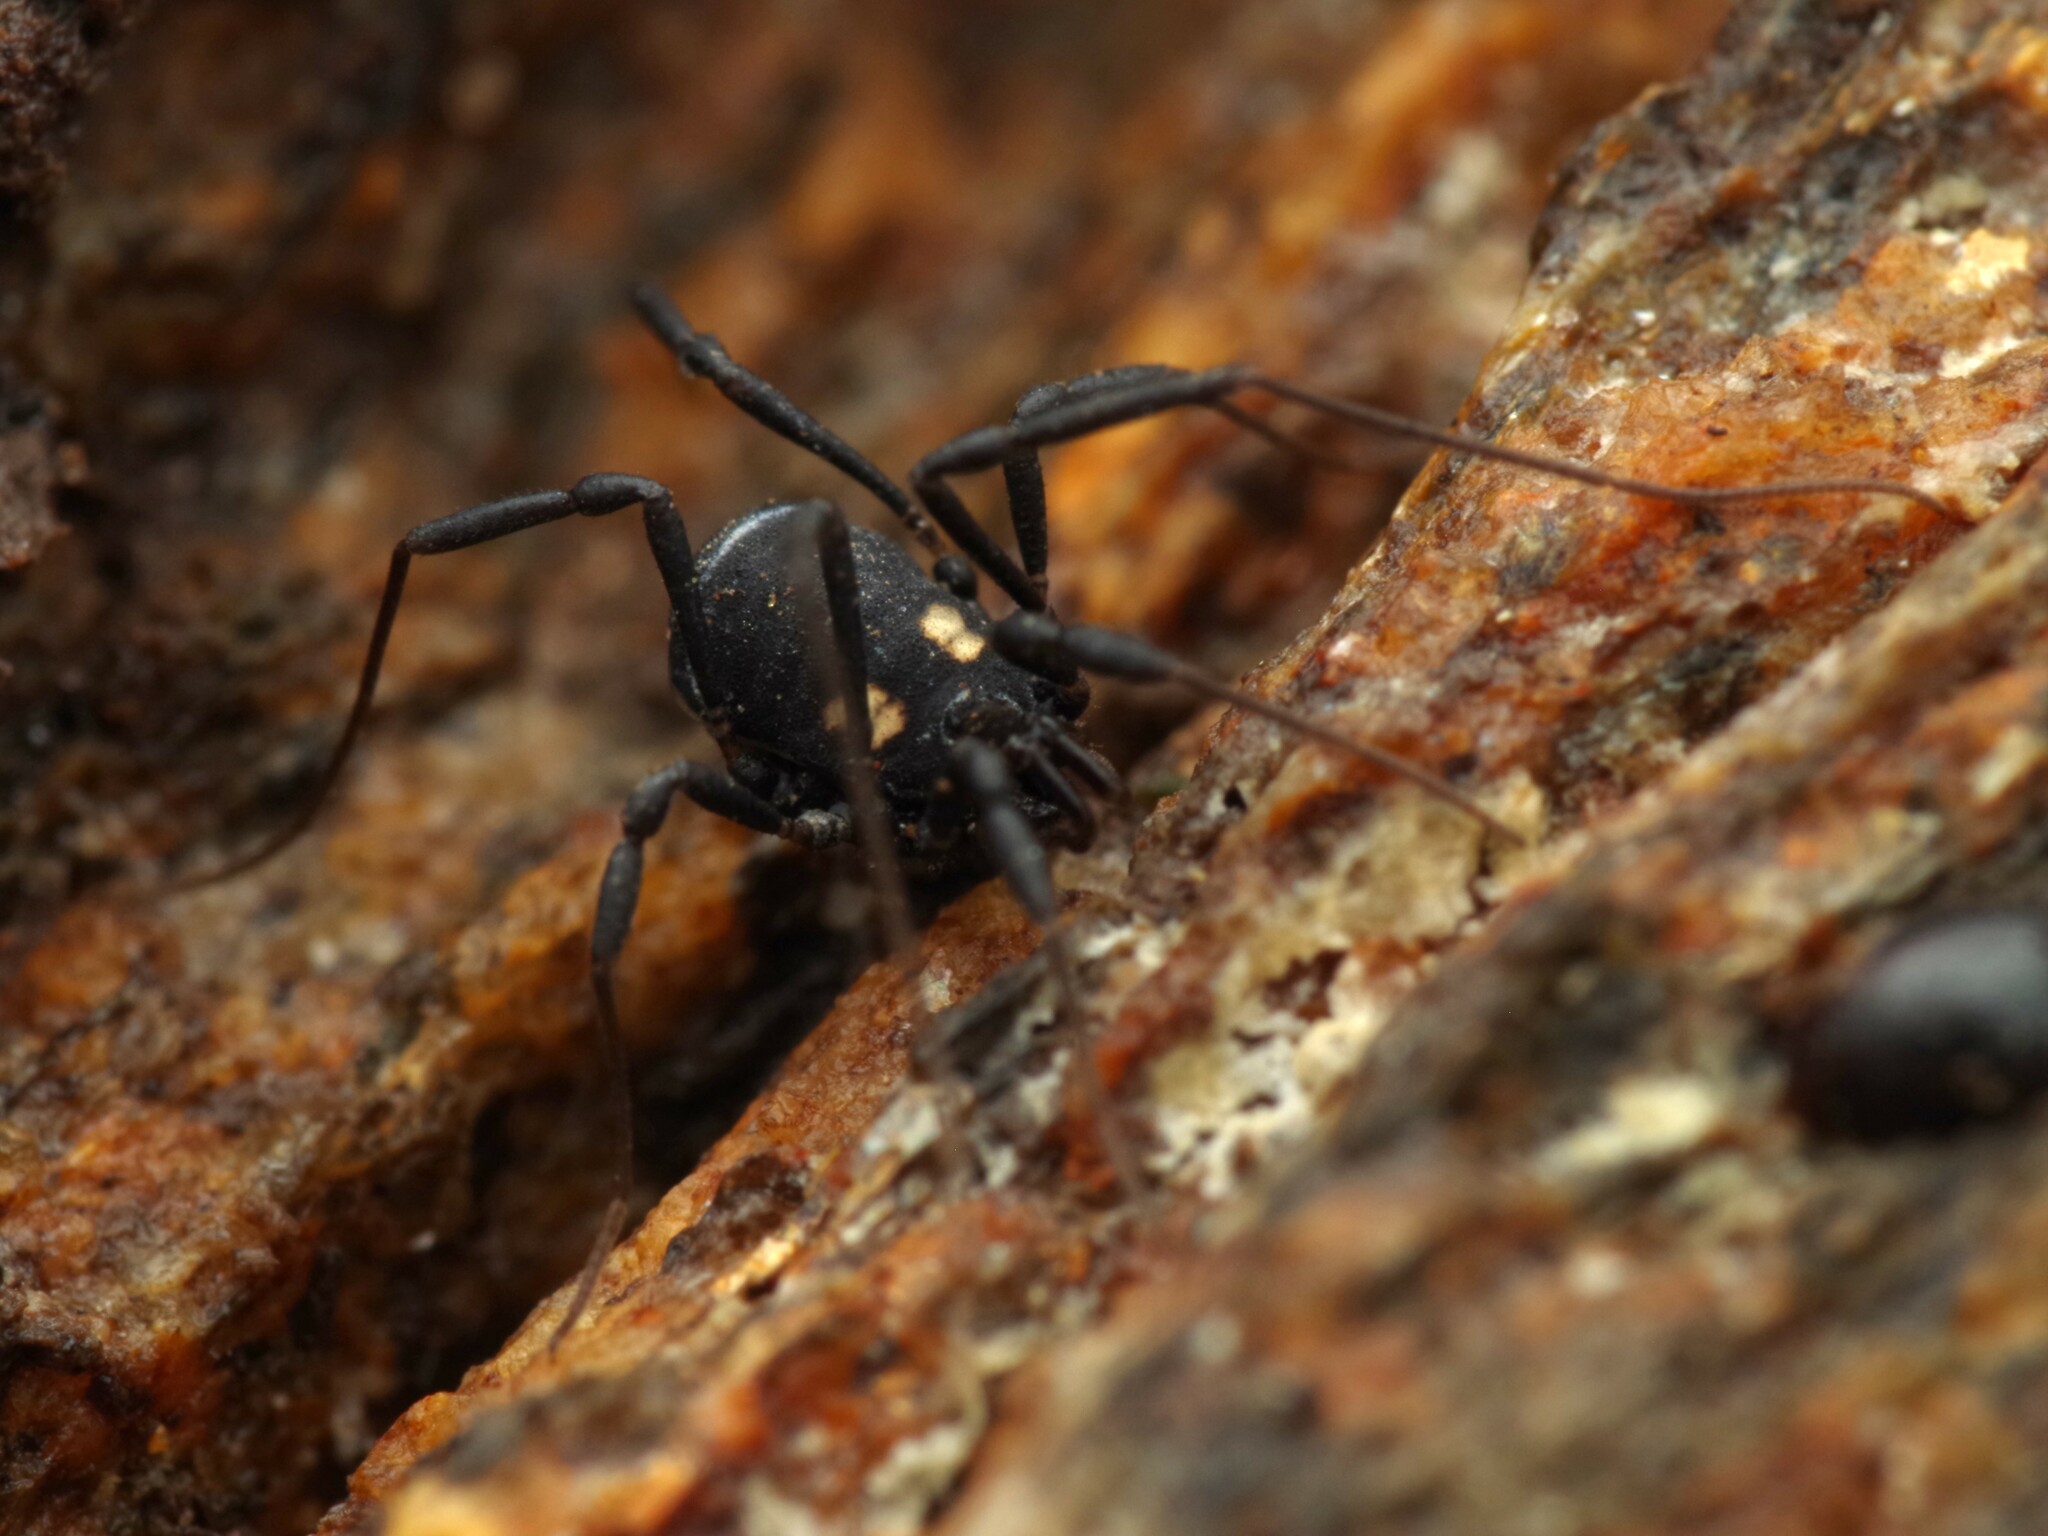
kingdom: Animalia
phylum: Arthropoda
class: Arachnida
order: Opiliones
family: Nemastomatidae
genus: Nemastoma
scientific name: Nemastoma bimaculatum
